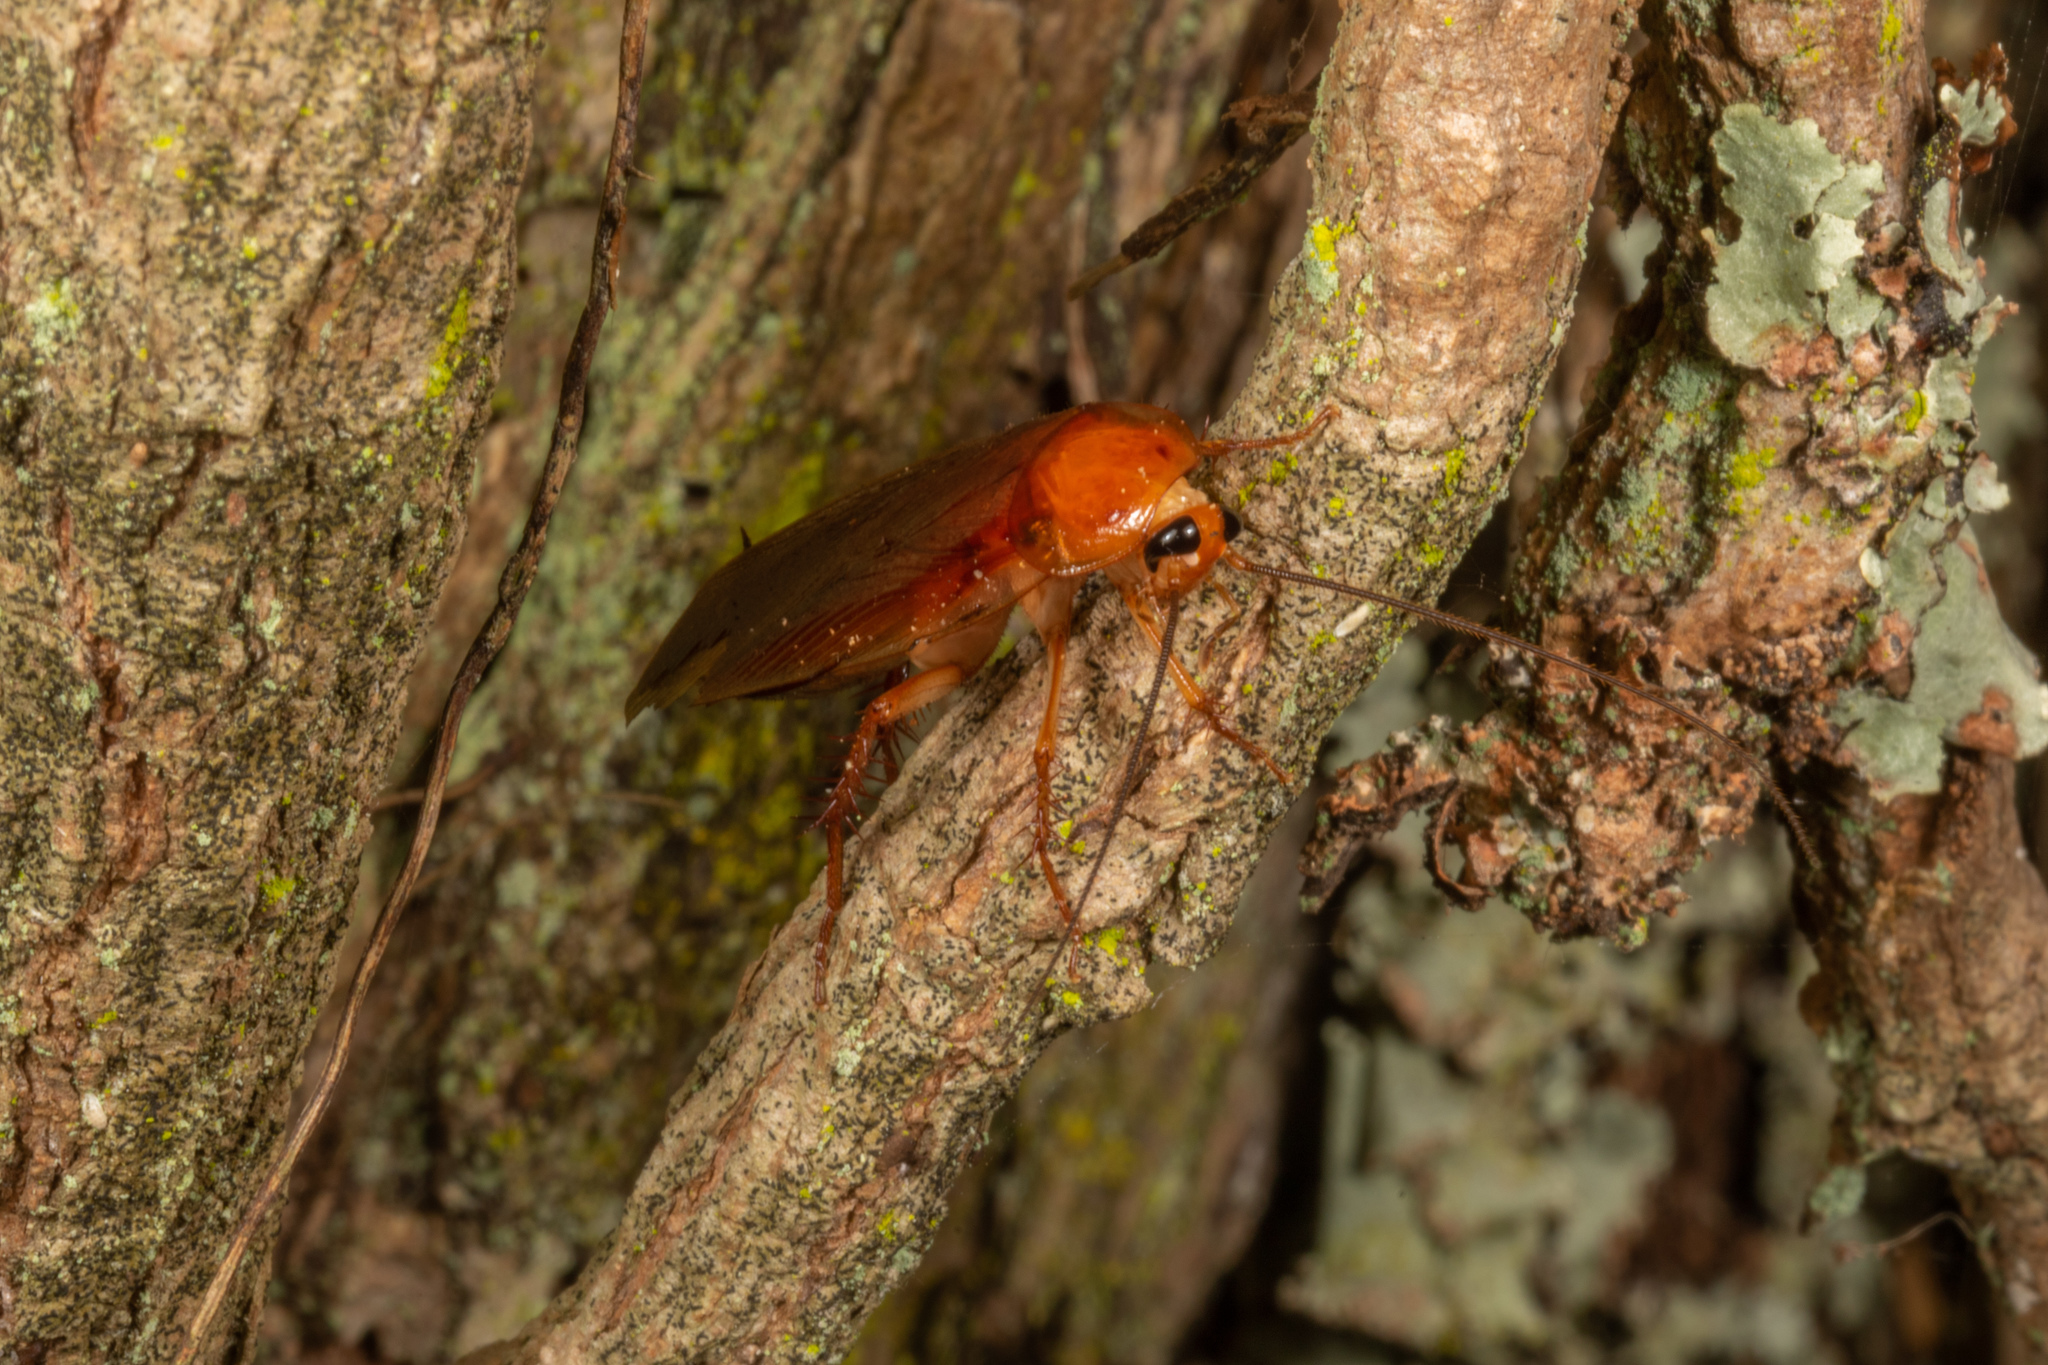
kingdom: Animalia
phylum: Arthropoda
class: Insecta
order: Blattodea
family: Ectobiidae
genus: Neotemnopteryx
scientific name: Neotemnopteryx fulva
